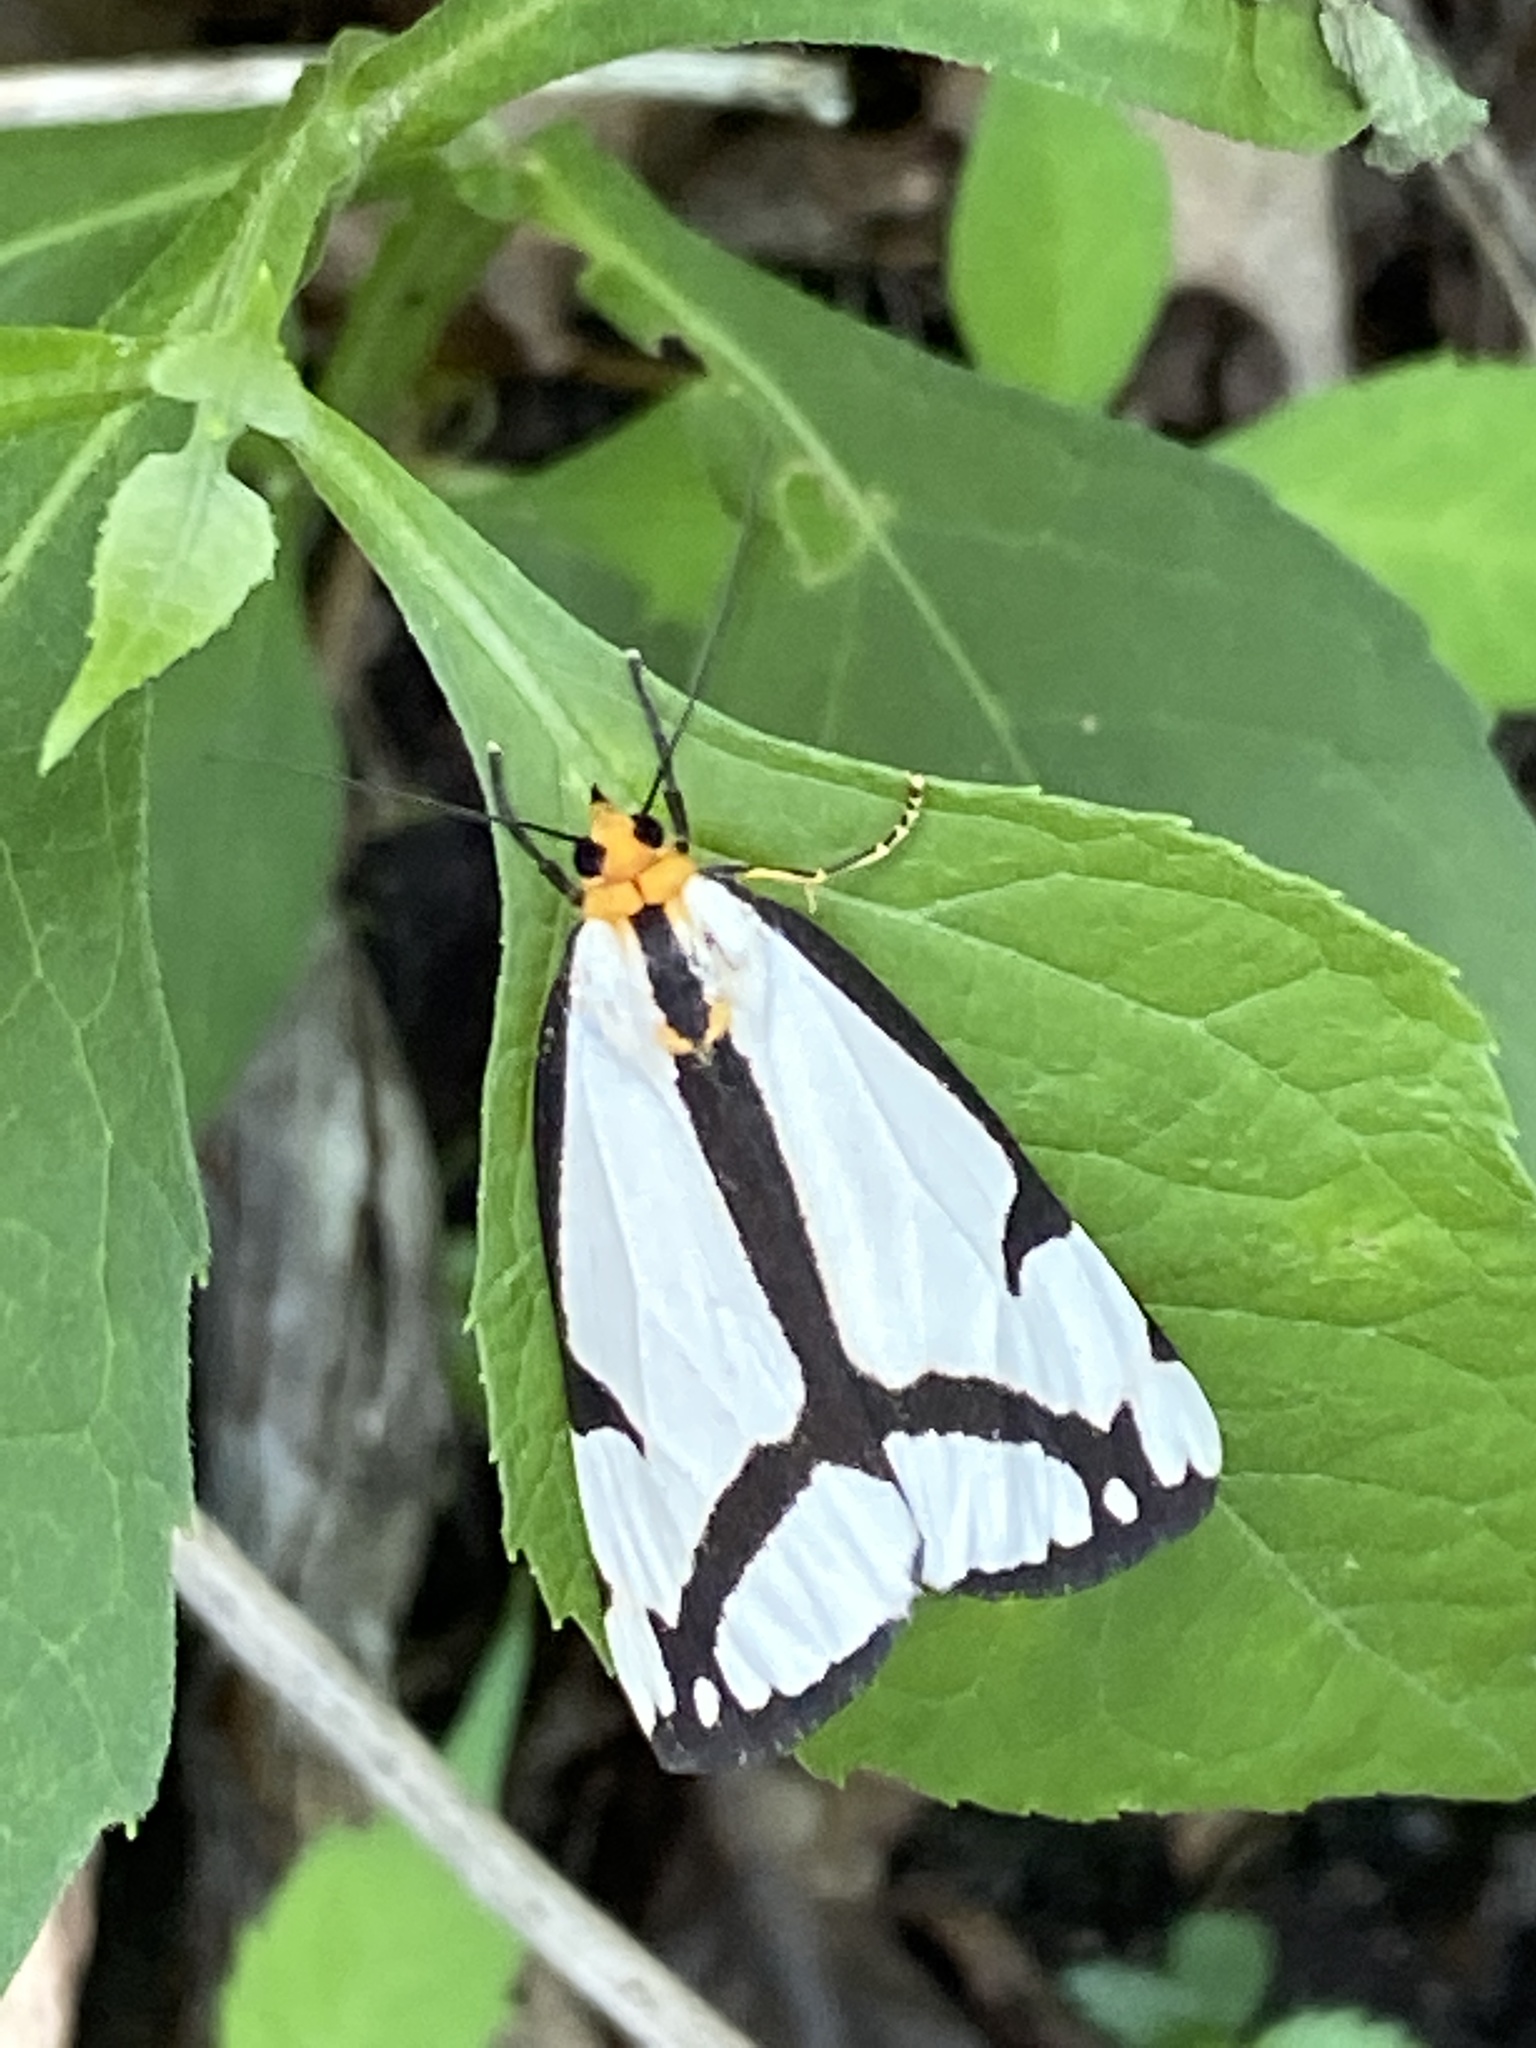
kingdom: Animalia
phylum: Arthropoda
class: Insecta
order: Lepidoptera
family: Erebidae
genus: Haploa
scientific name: Haploa lecontei
